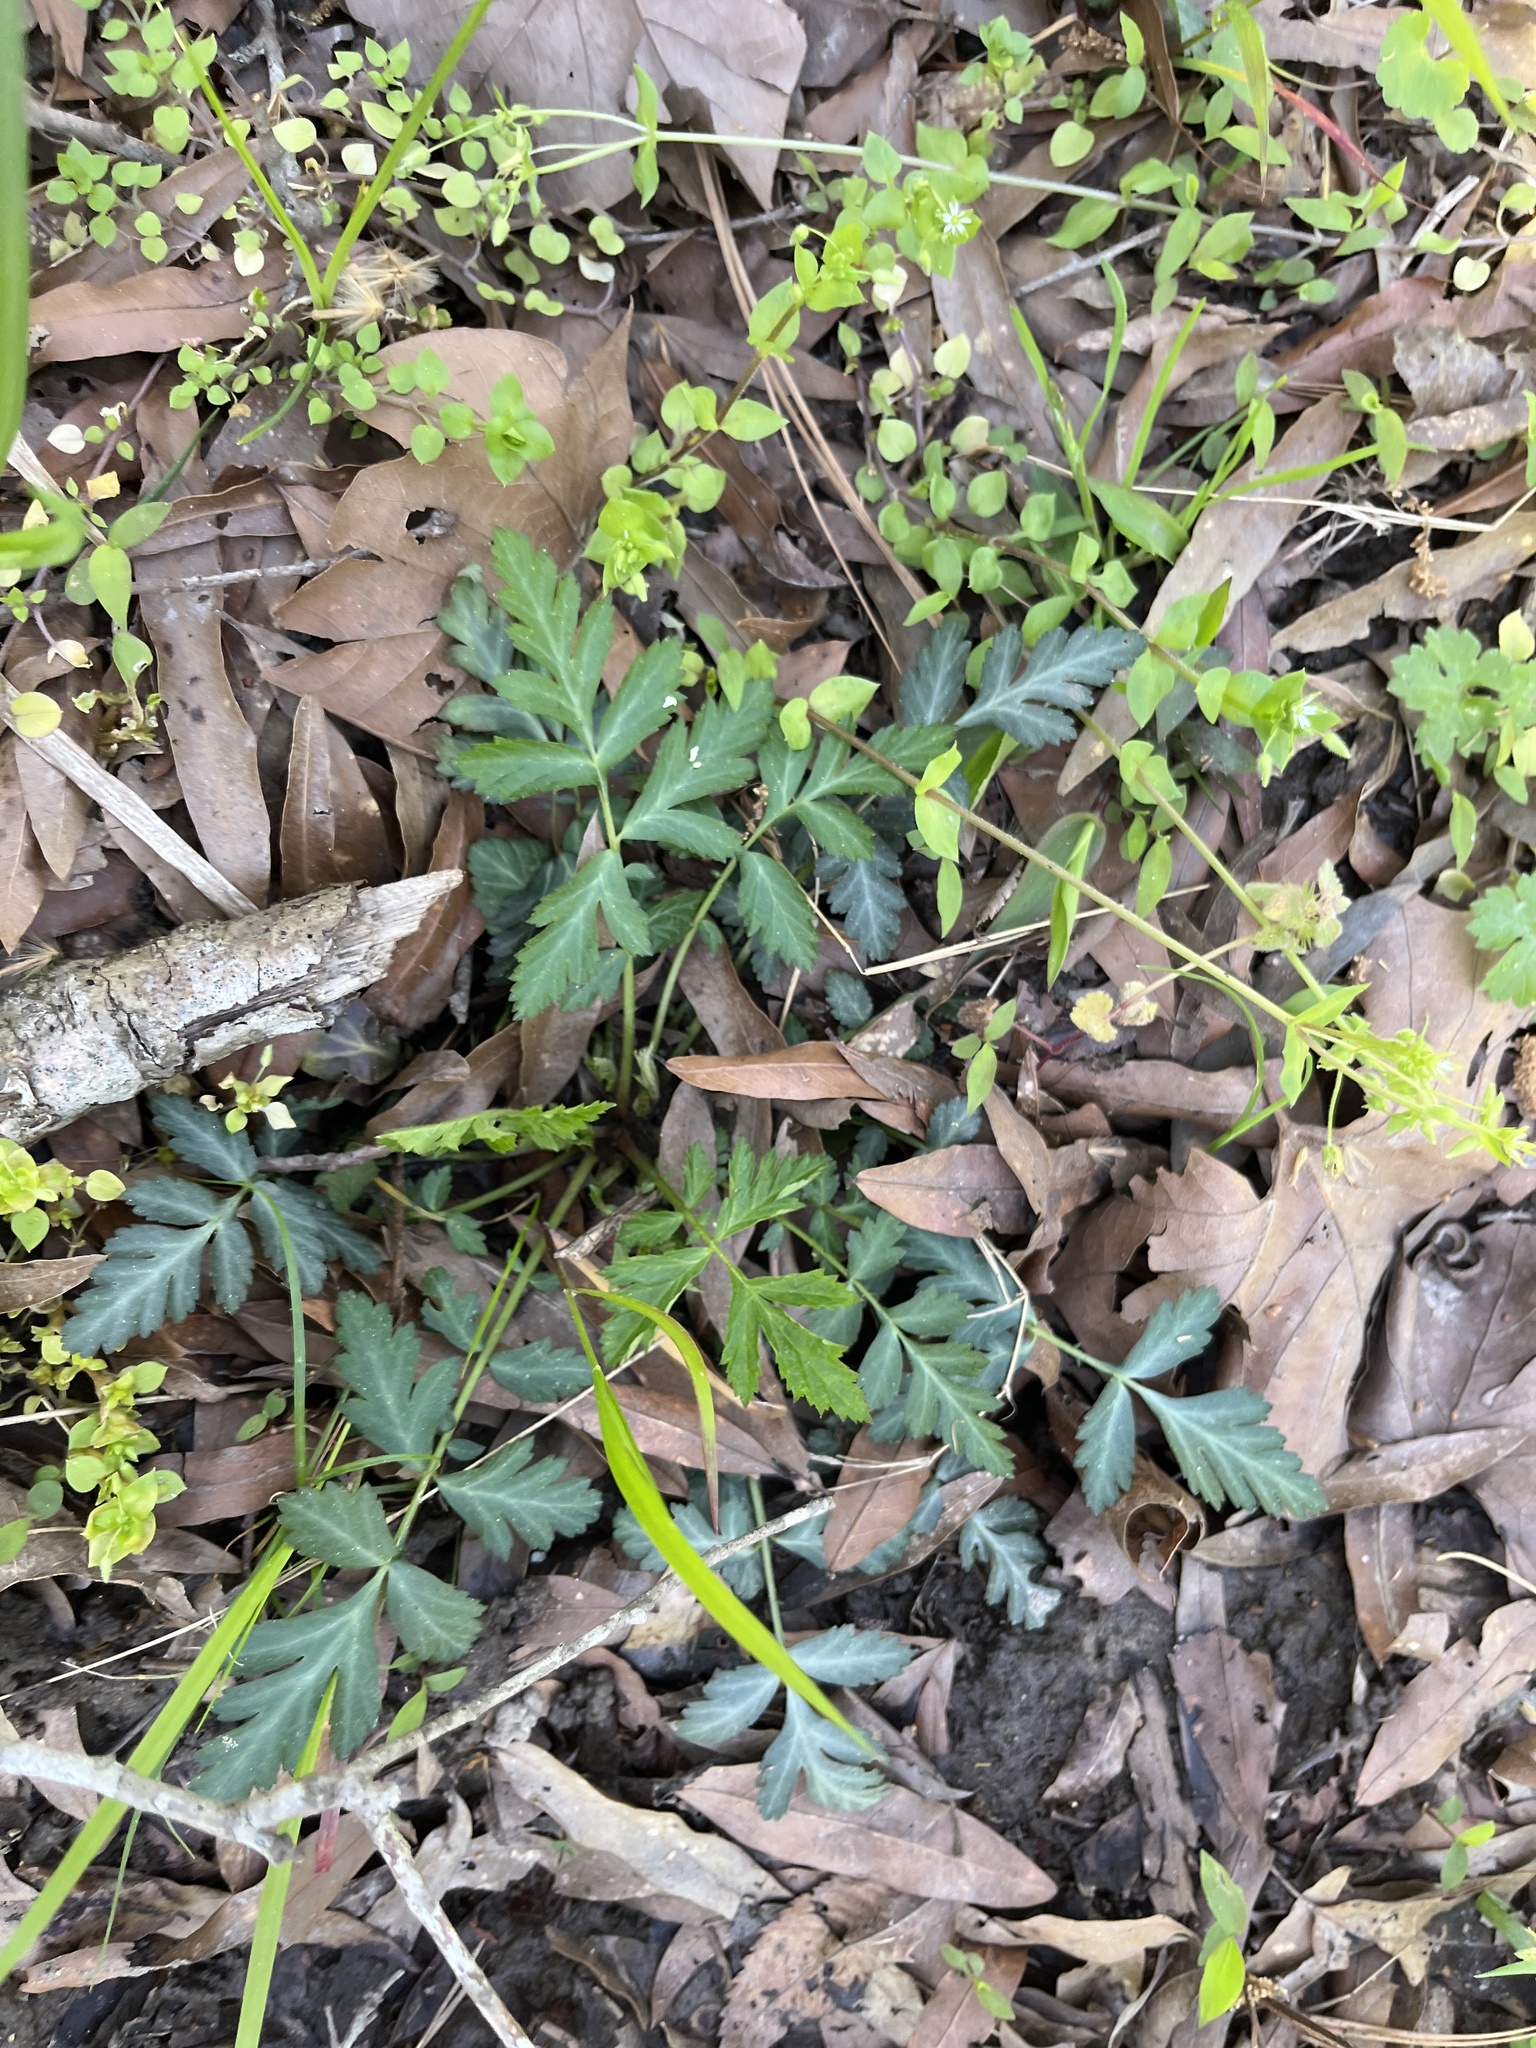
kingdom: Plantae
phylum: Tracheophyta
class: Magnoliopsida
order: Rosales
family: Rosaceae
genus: Geum
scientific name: Geum canadense
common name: White avens
